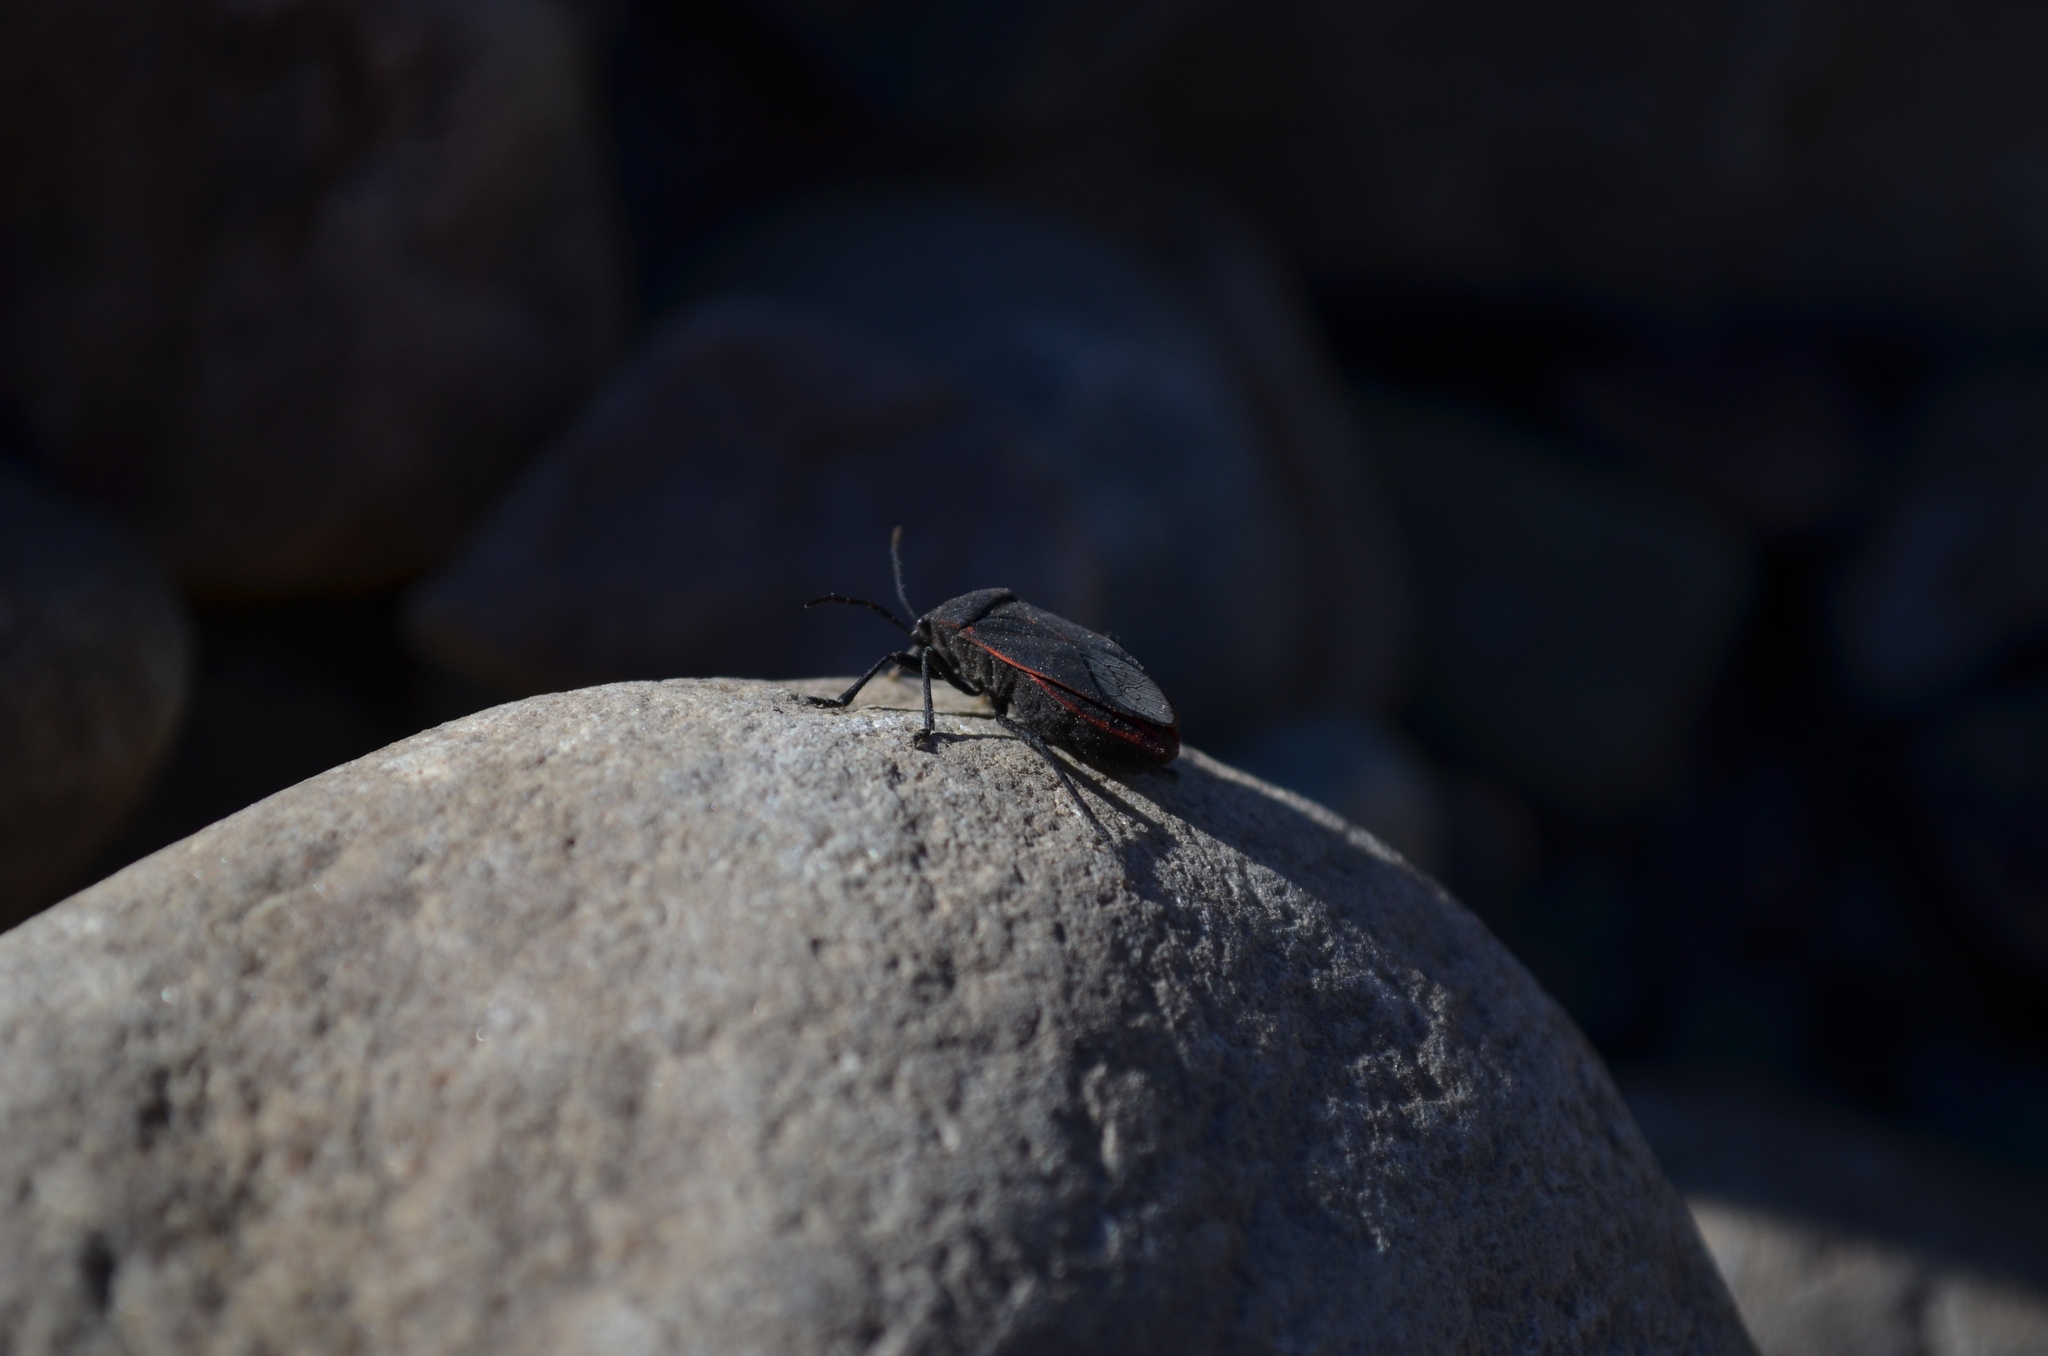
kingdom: Animalia
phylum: Arthropoda
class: Insecta
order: Hemiptera
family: Largidae
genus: Largus
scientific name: Largus rufipennis
